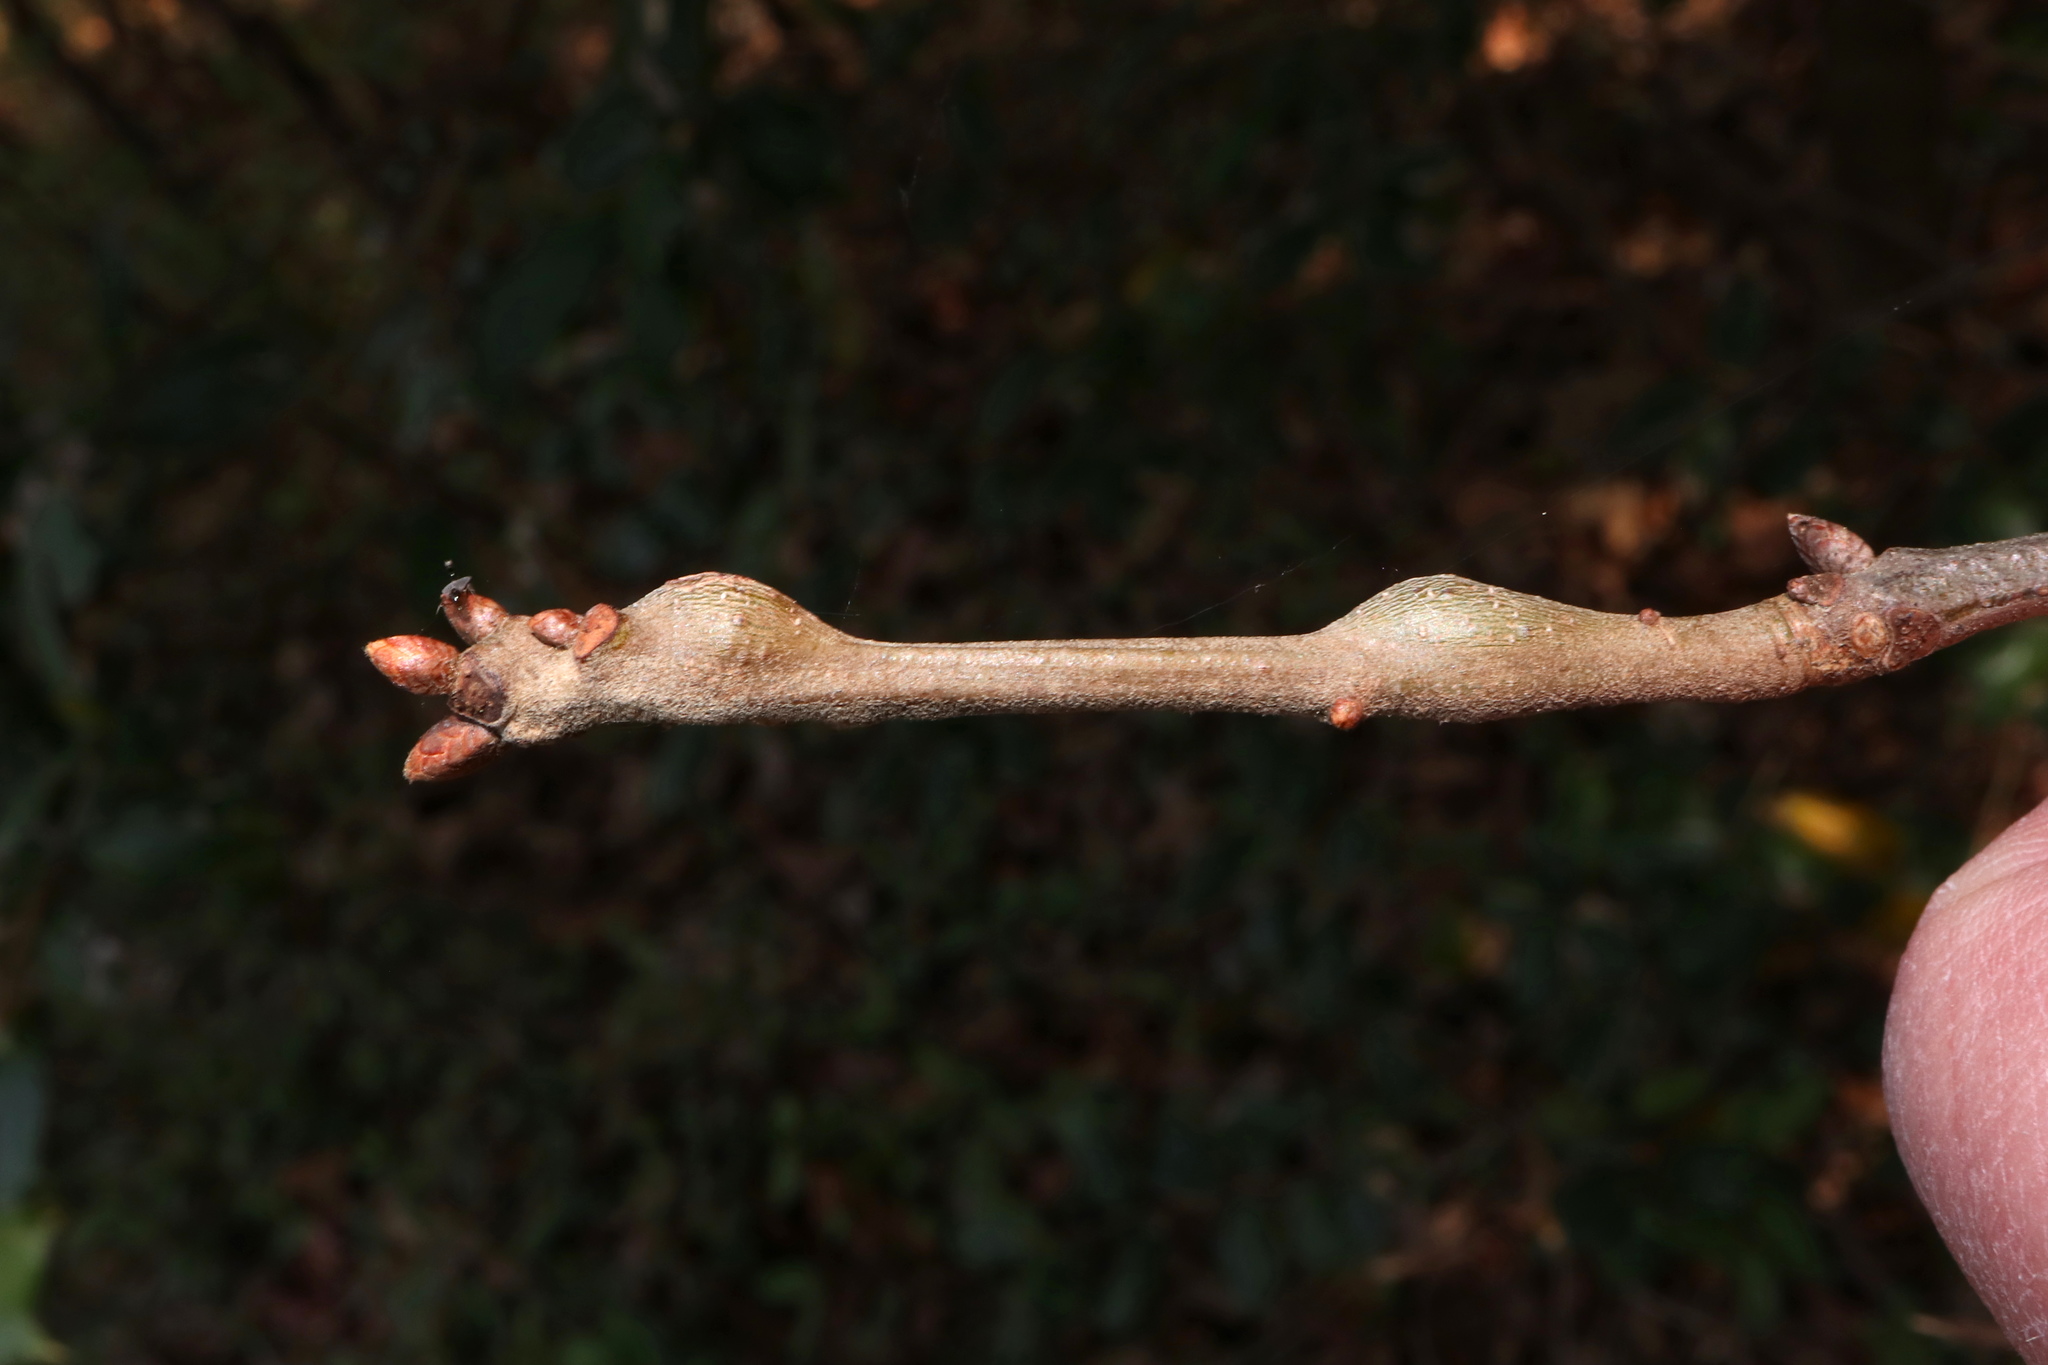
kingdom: Animalia
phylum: Arthropoda
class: Insecta
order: Hymenoptera
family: Cynipidae
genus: Zapatella
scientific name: Zapatella quercusmedullae
